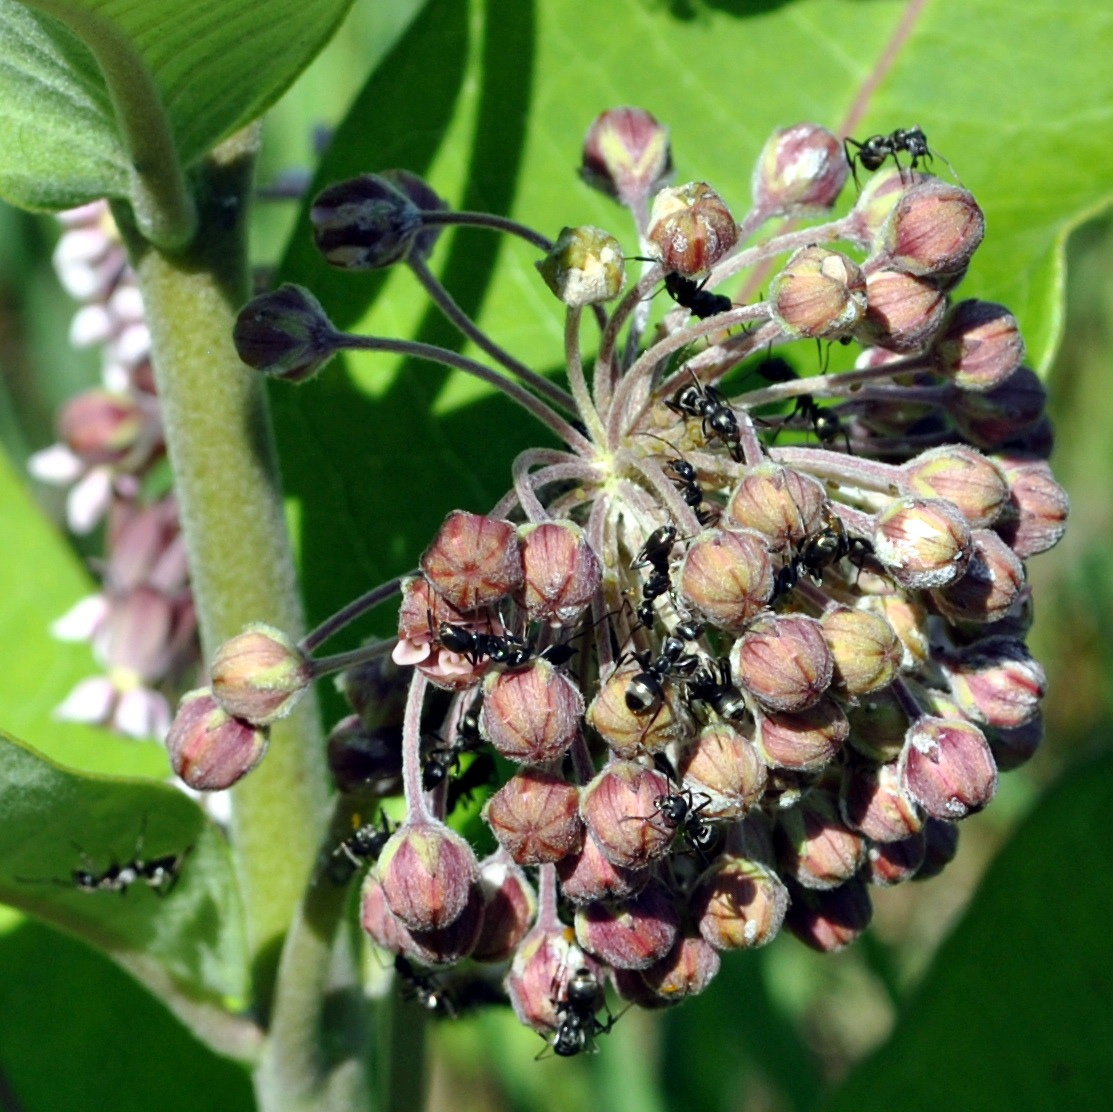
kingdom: Plantae
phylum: Tracheophyta
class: Magnoliopsida
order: Gentianales
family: Apocynaceae
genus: Asclepias
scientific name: Asclepias syriaca
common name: Common milkweed
